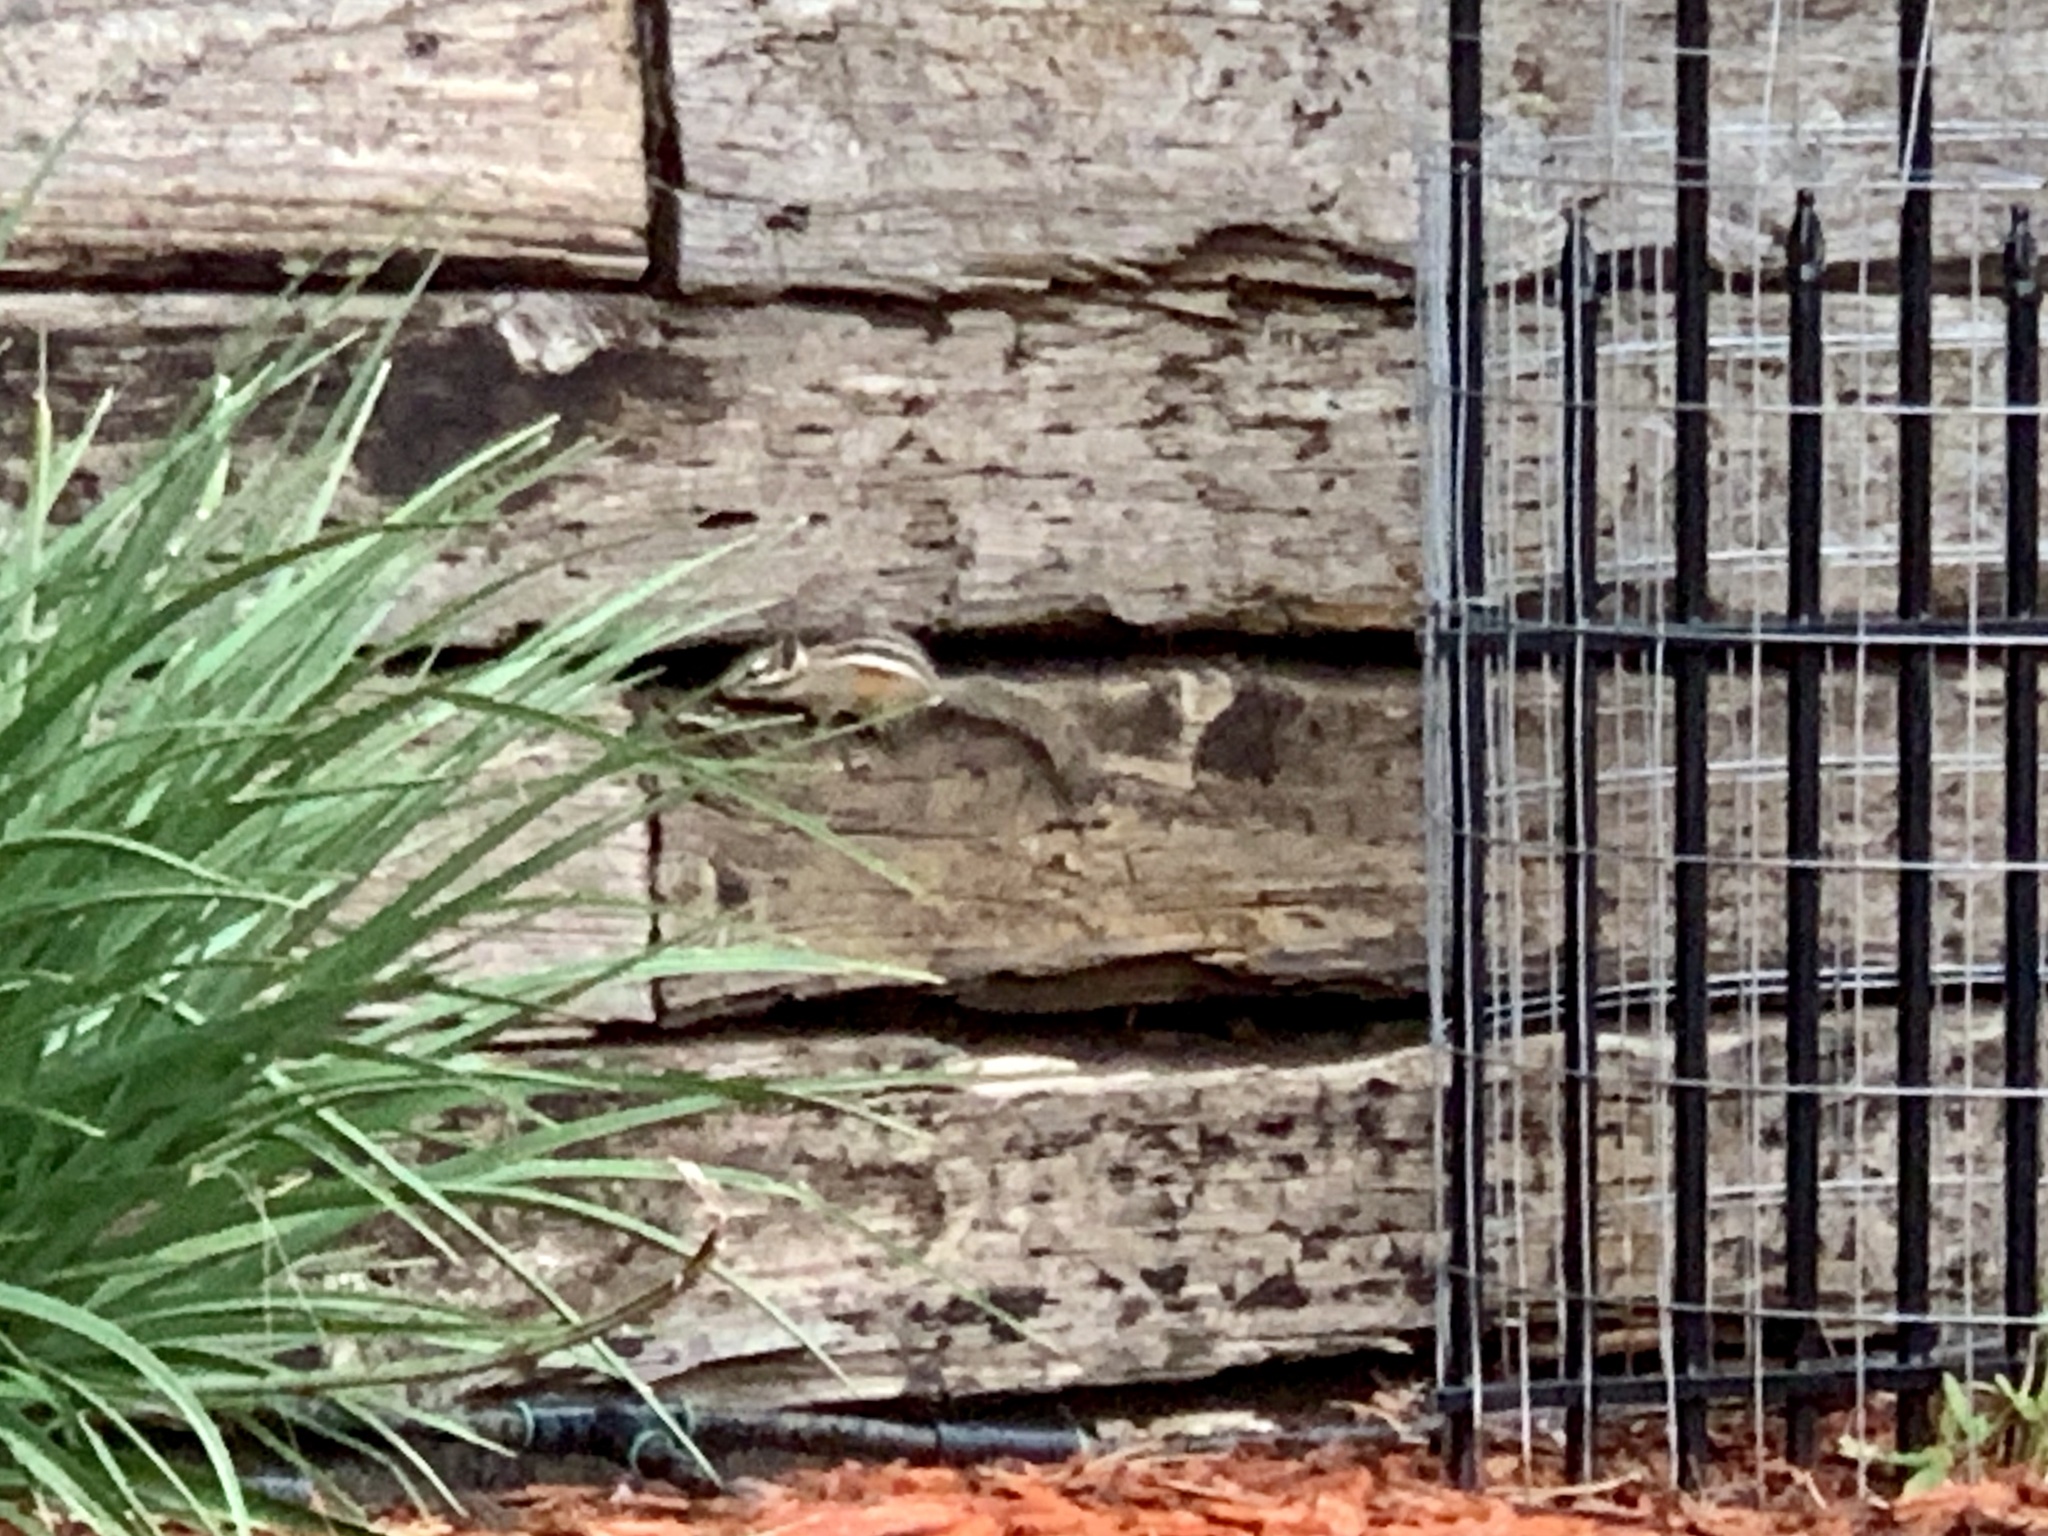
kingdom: Animalia
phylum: Chordata
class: Mammalia
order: Rodentia
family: Sciuridae
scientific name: Sciuridae
